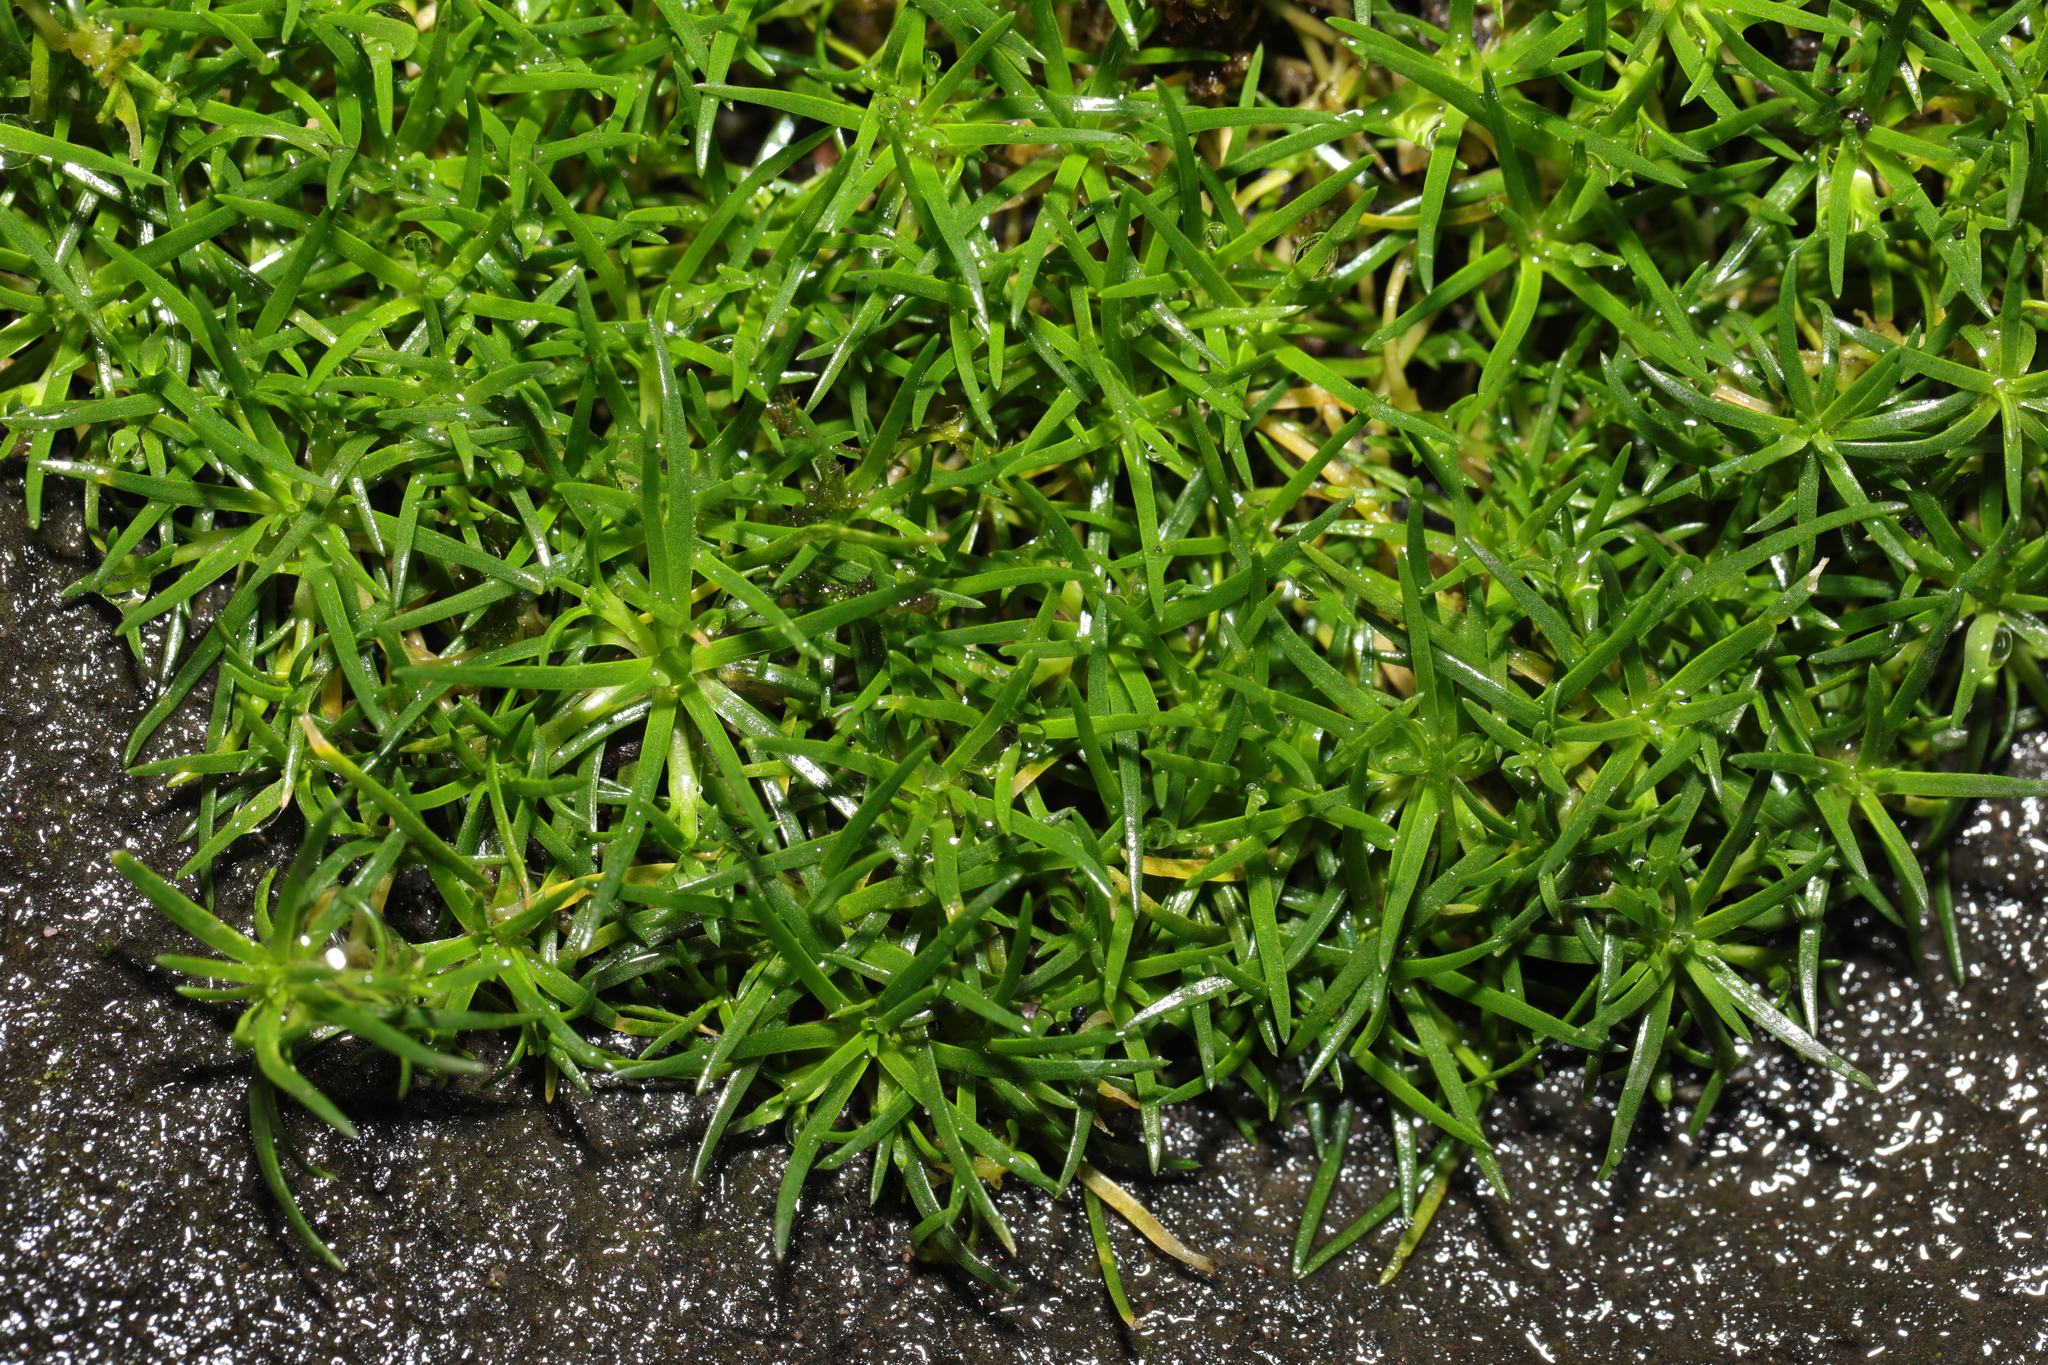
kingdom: Plantae
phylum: Tracheophyta
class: Magnoliopsida
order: Caryophyllales
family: Caryophyllaceae
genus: Sagina
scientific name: Sagina procumbens
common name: Procumbent pearlwort
